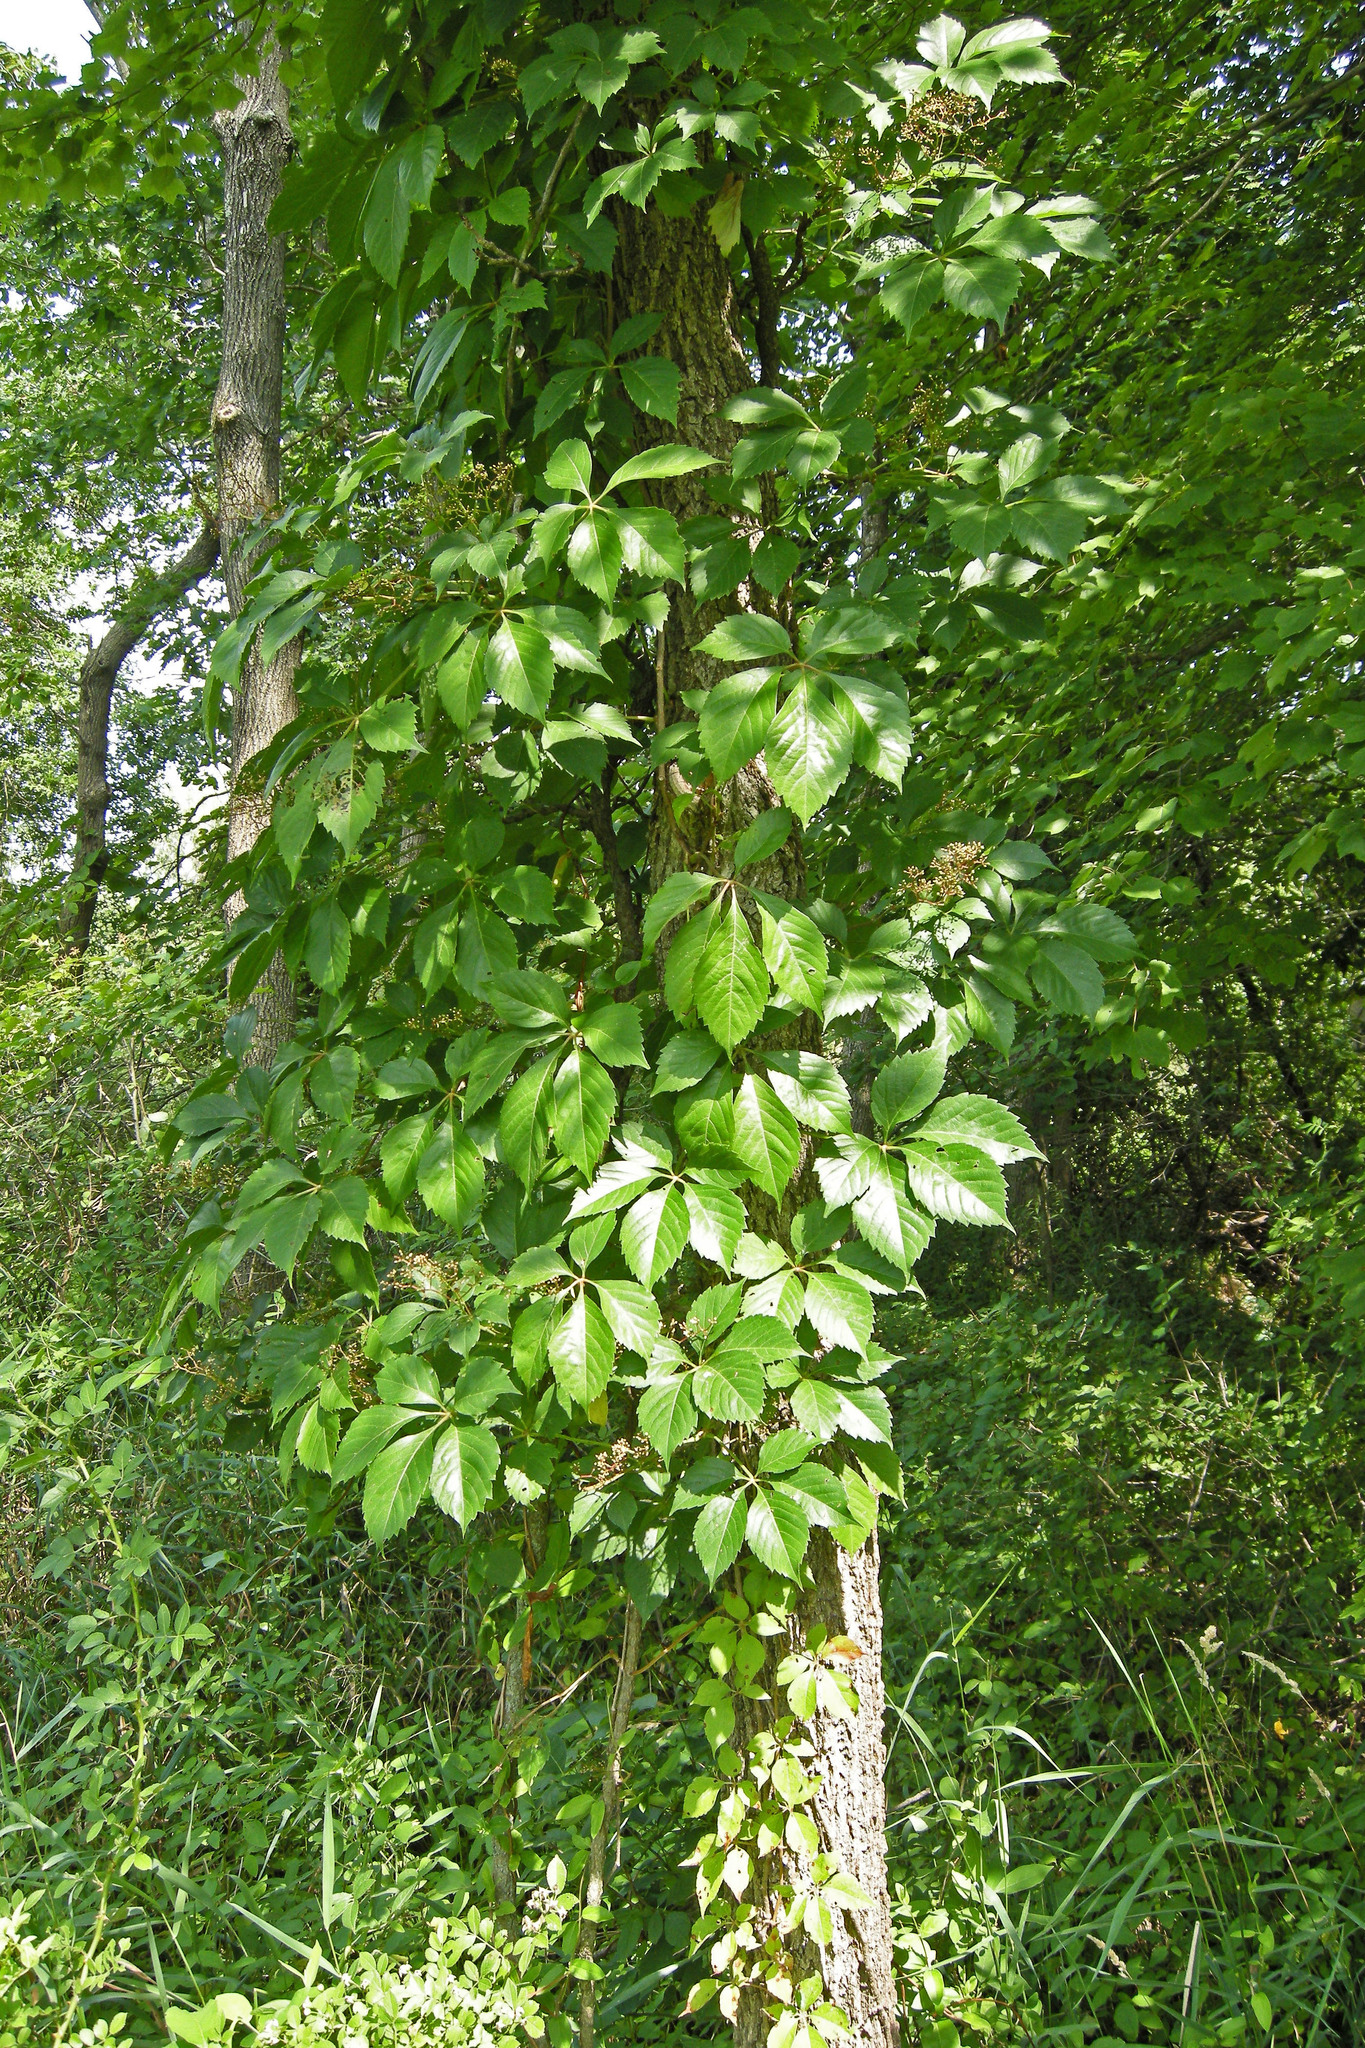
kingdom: Plantae
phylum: Tracheophyta
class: Magnoliopsida
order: Vitales
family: Vitaceae
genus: Parthenocissus
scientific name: Parthenocissus quinquefolia
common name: Virginia-creeper
